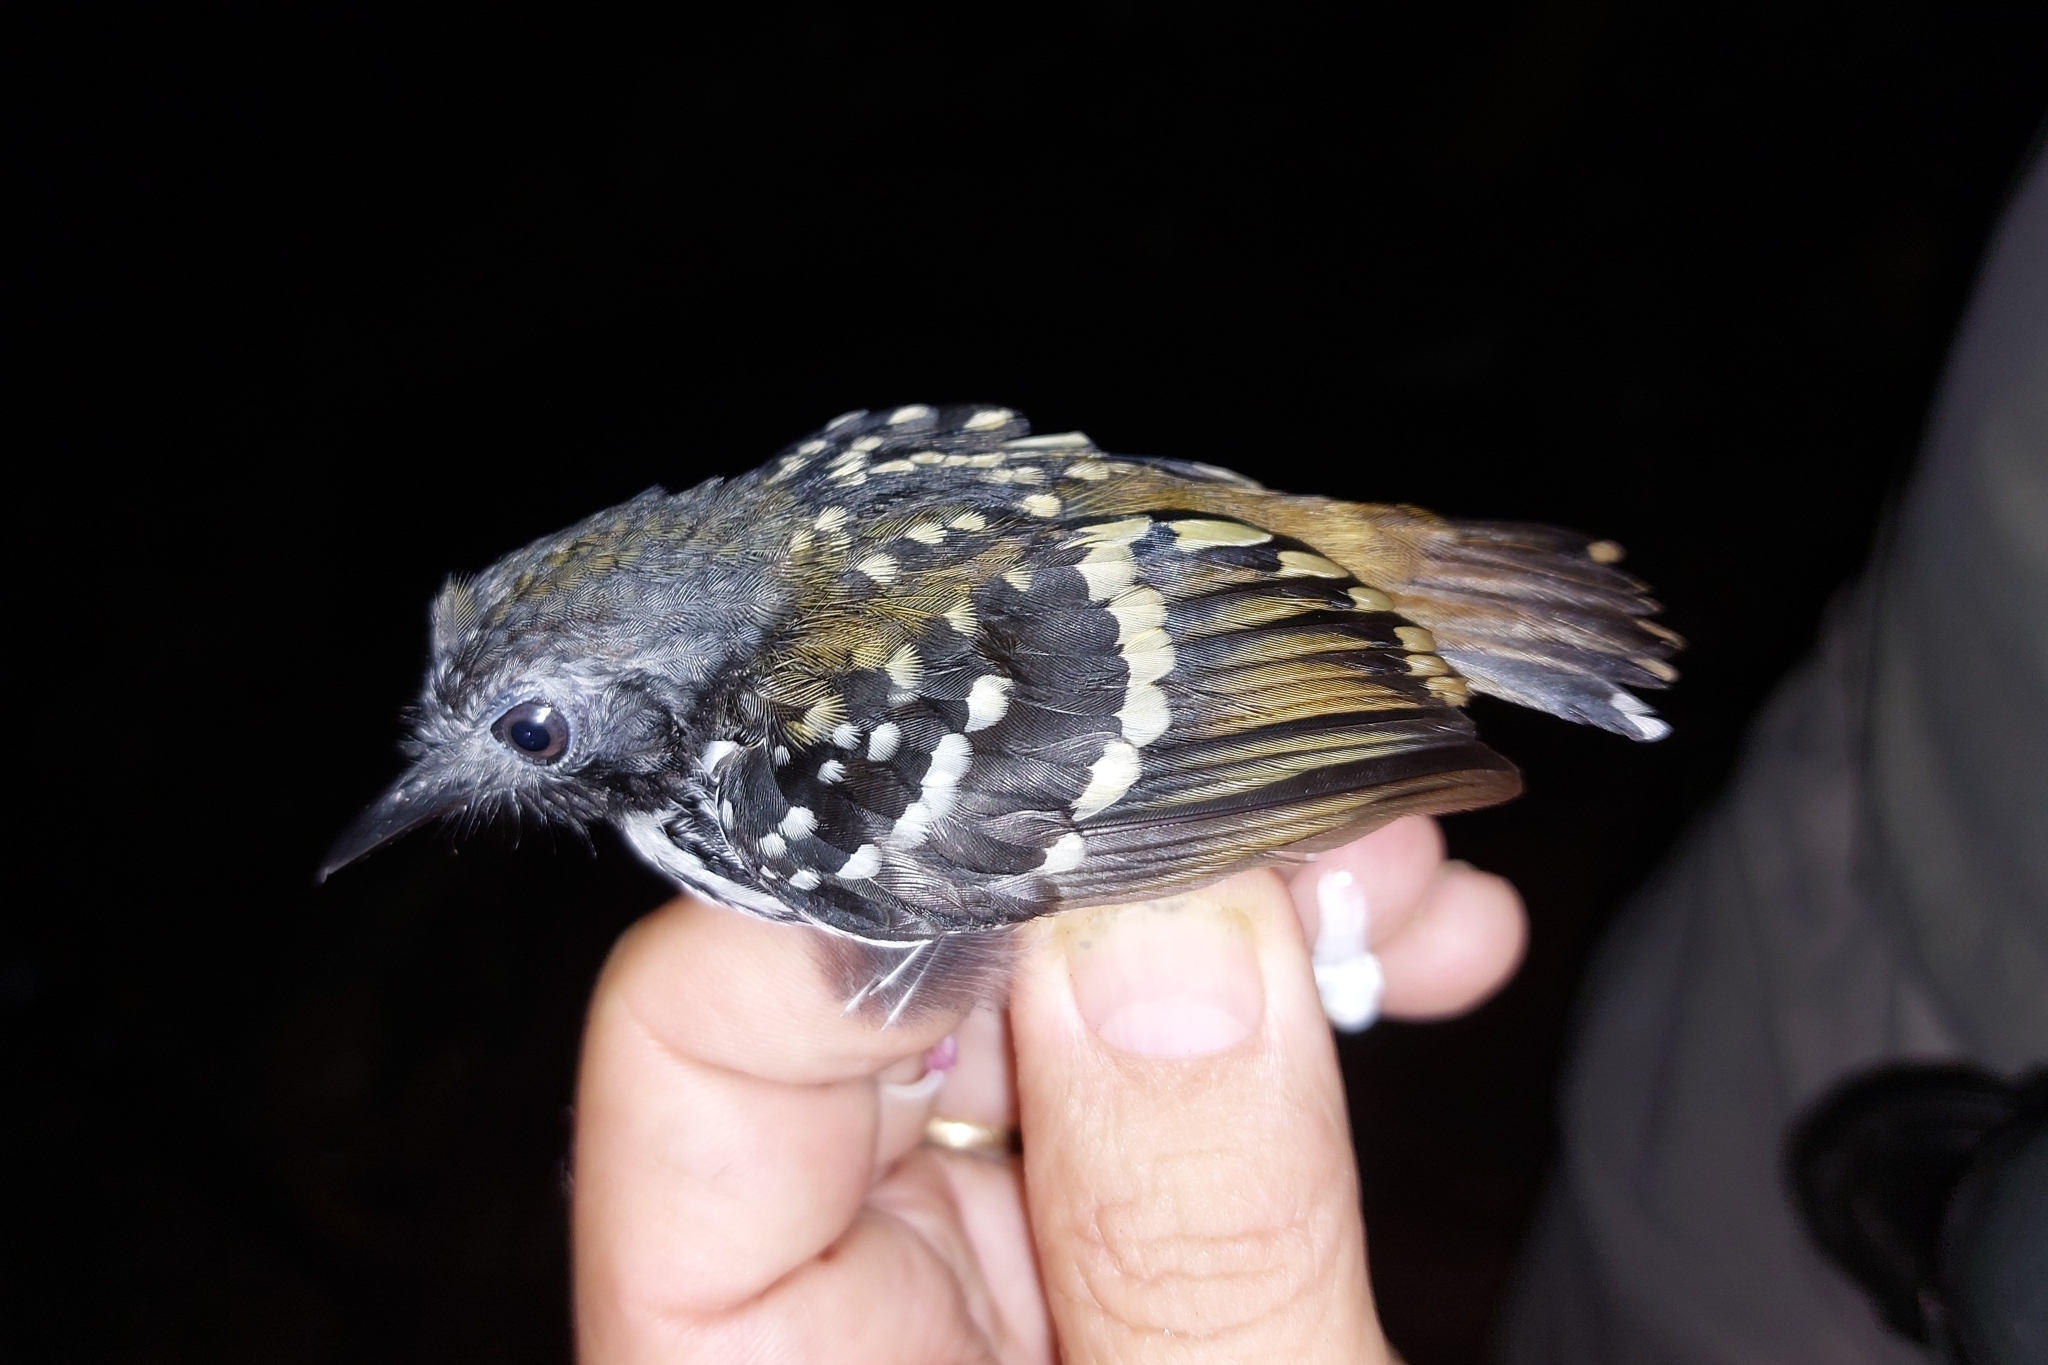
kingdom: Animalia
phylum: Chordata
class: Aves
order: Passeriformes
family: Thamnophilidae
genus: Hylophylax
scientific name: Hylophylax naevius
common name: Spot-backed antbird
